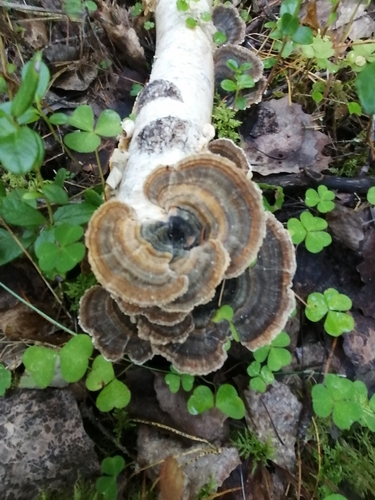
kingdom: Fungi
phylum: Basidiomycota
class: Agaricomycetes
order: Polyporales
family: Polyporaceae
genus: Trametes
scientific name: Trametes versicolor
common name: Turkeytail
